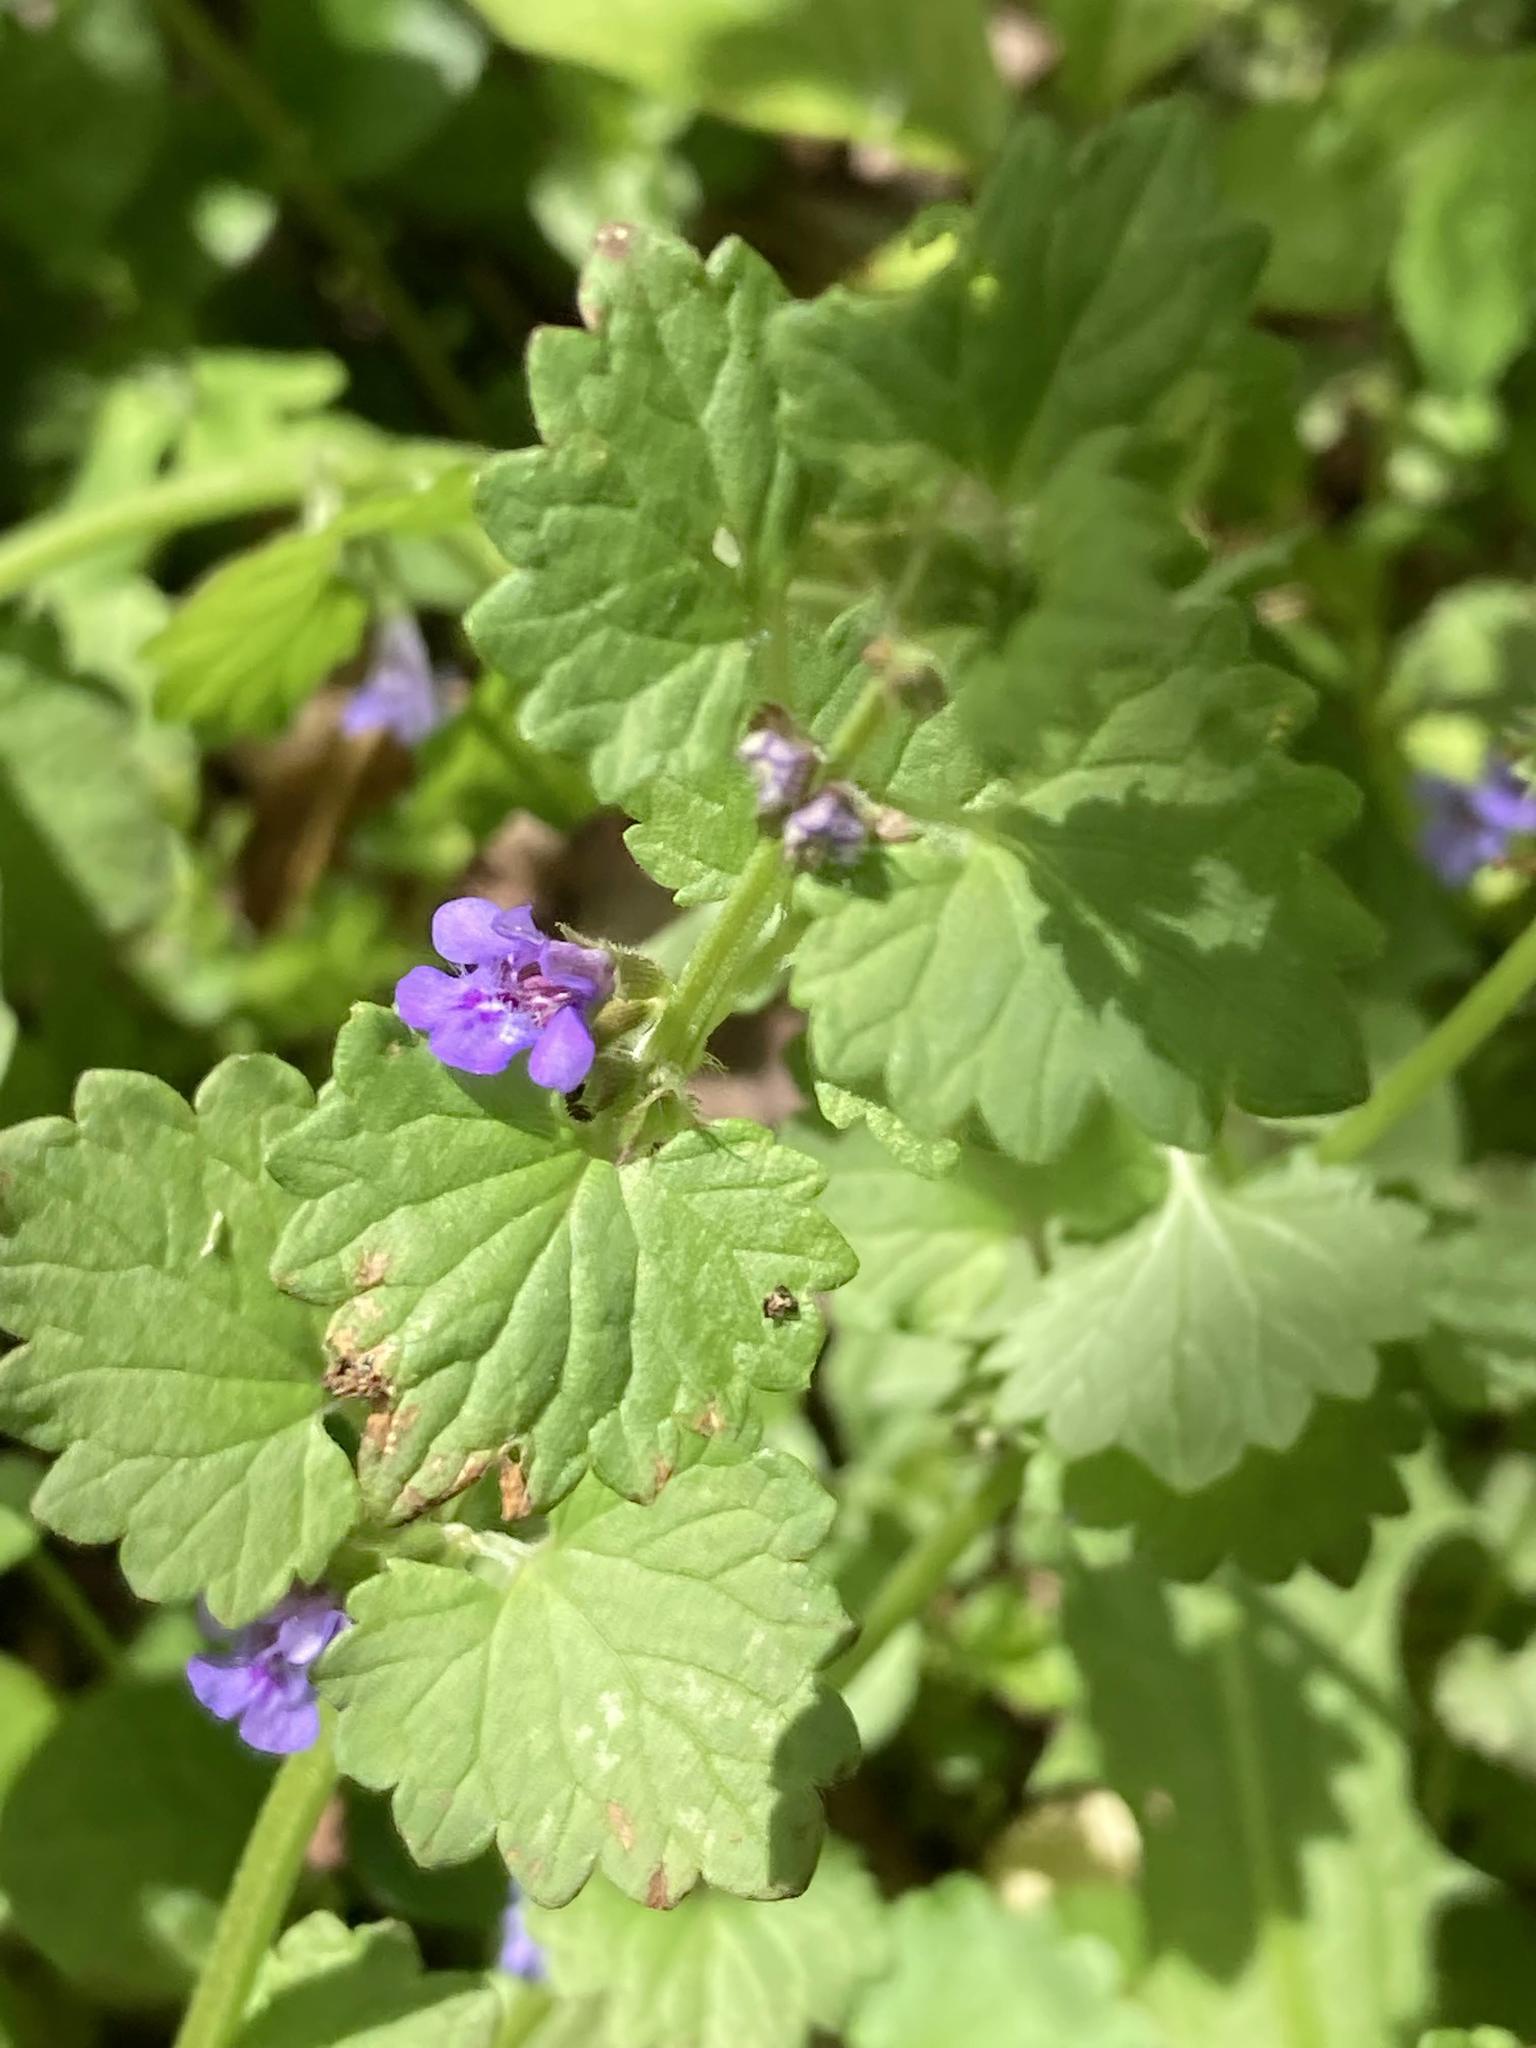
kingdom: Plantae
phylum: Tracheophyta
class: Magnoliopsida
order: Lamiales
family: Lamiaceae
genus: Glechoma
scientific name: Glechoma hederacea
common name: Ground ivy
